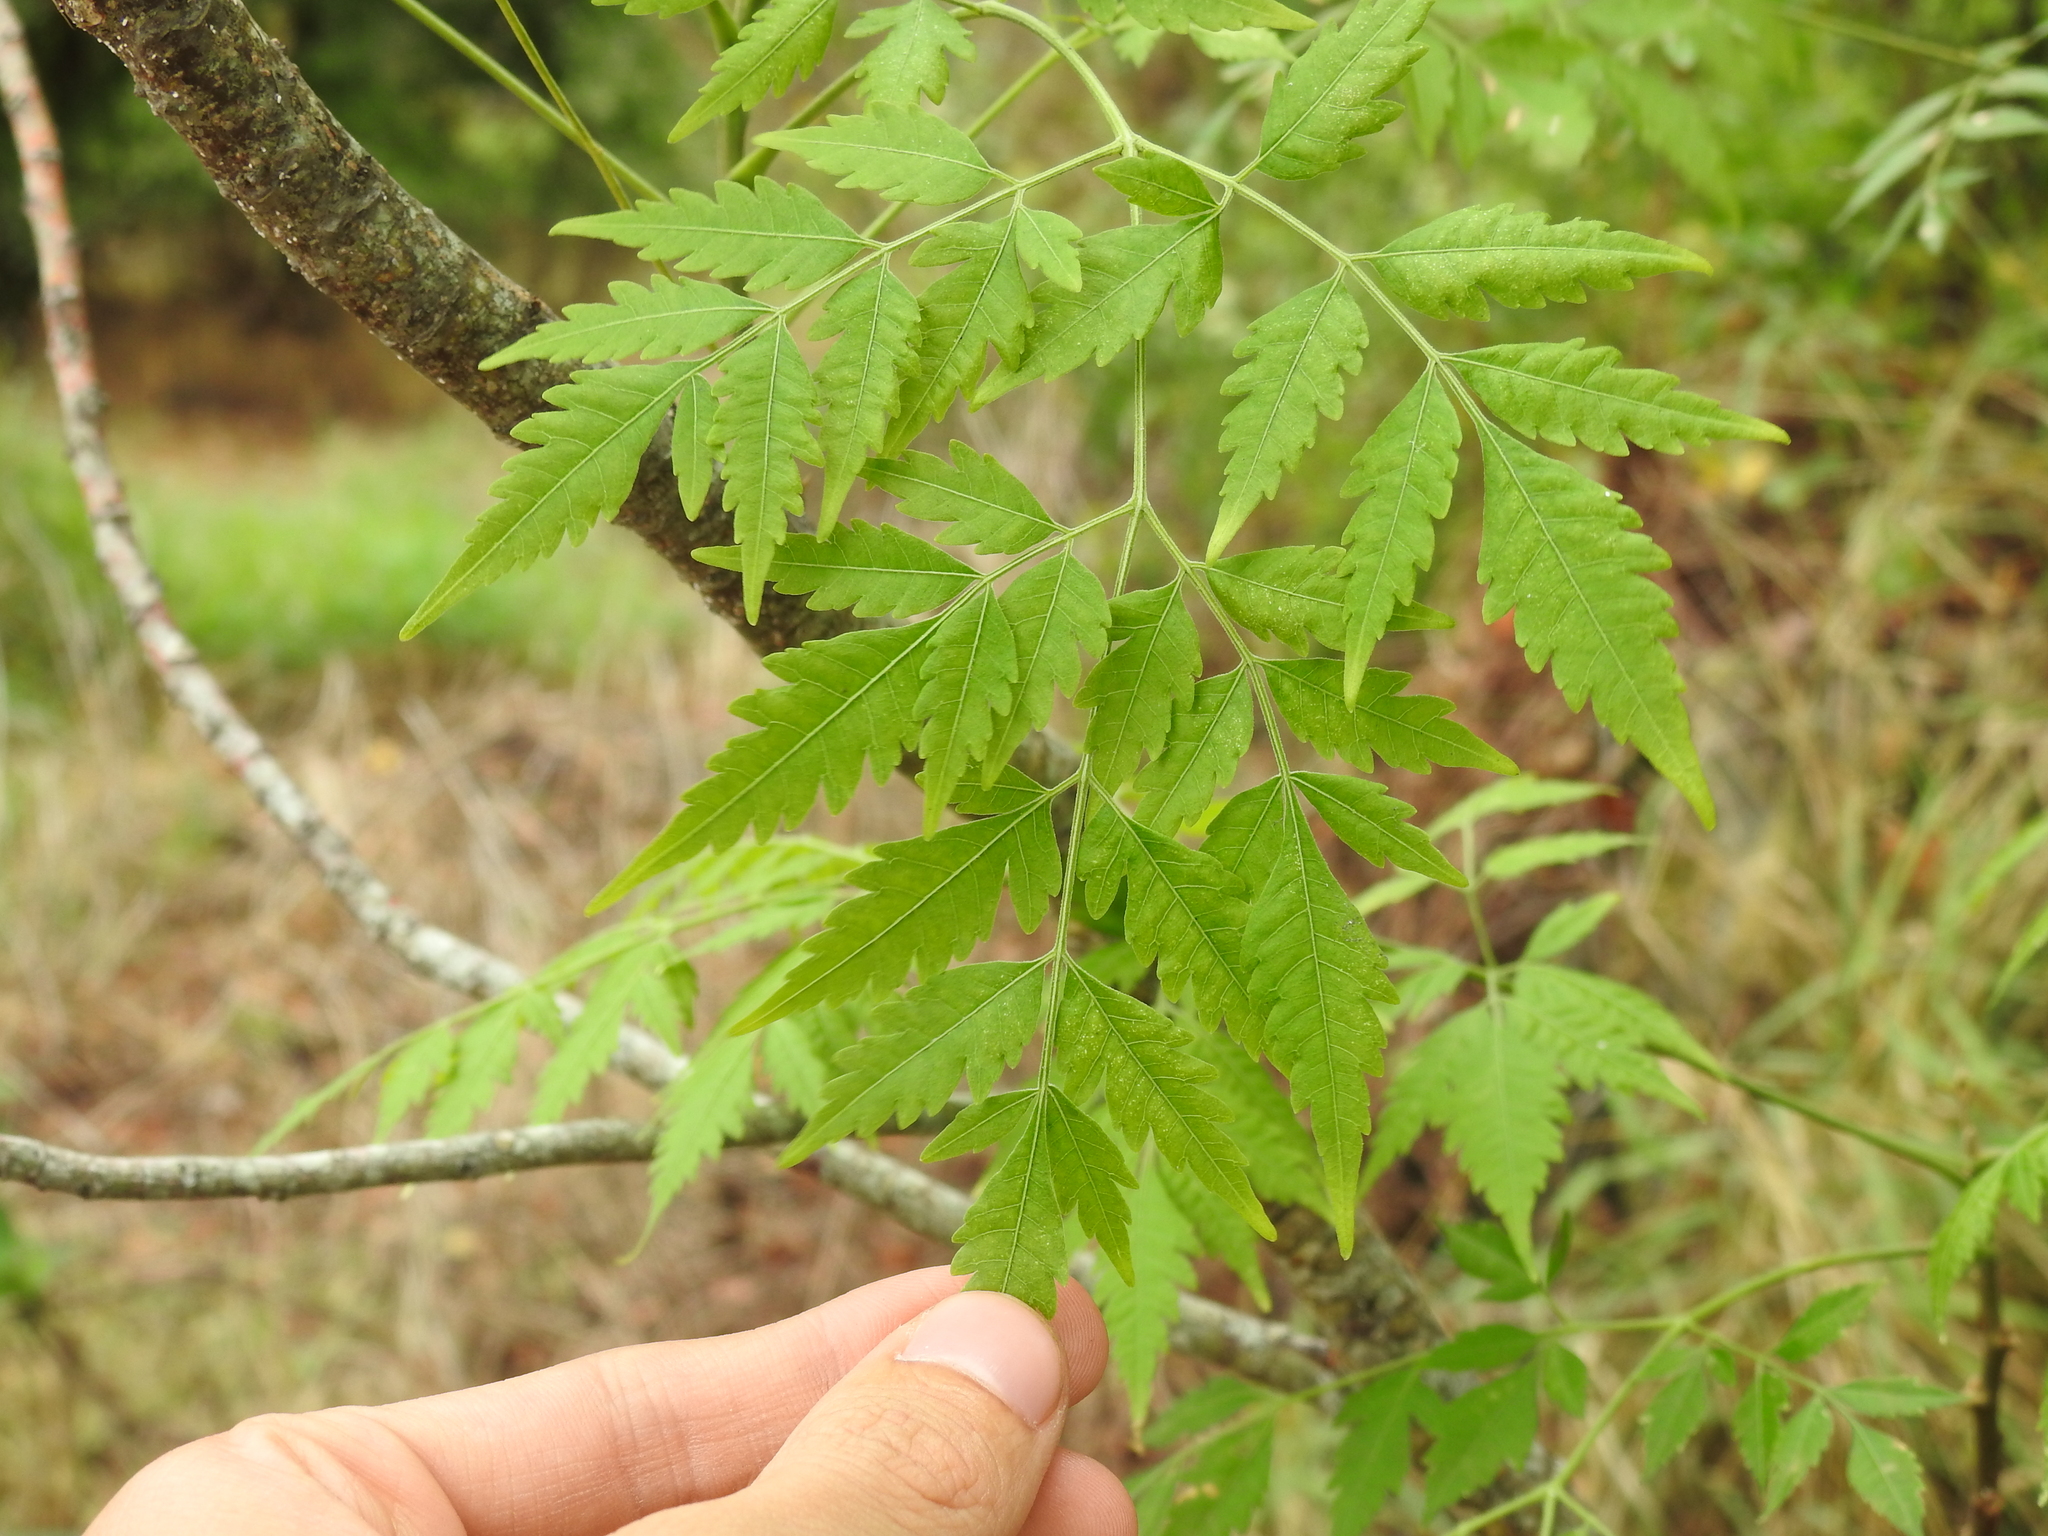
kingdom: Plantae
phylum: Tracheophyta
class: Magnoliopsida
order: Sapindales
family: Meliaceae
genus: Melia
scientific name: Melia azedarach
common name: Chinaberrytree
